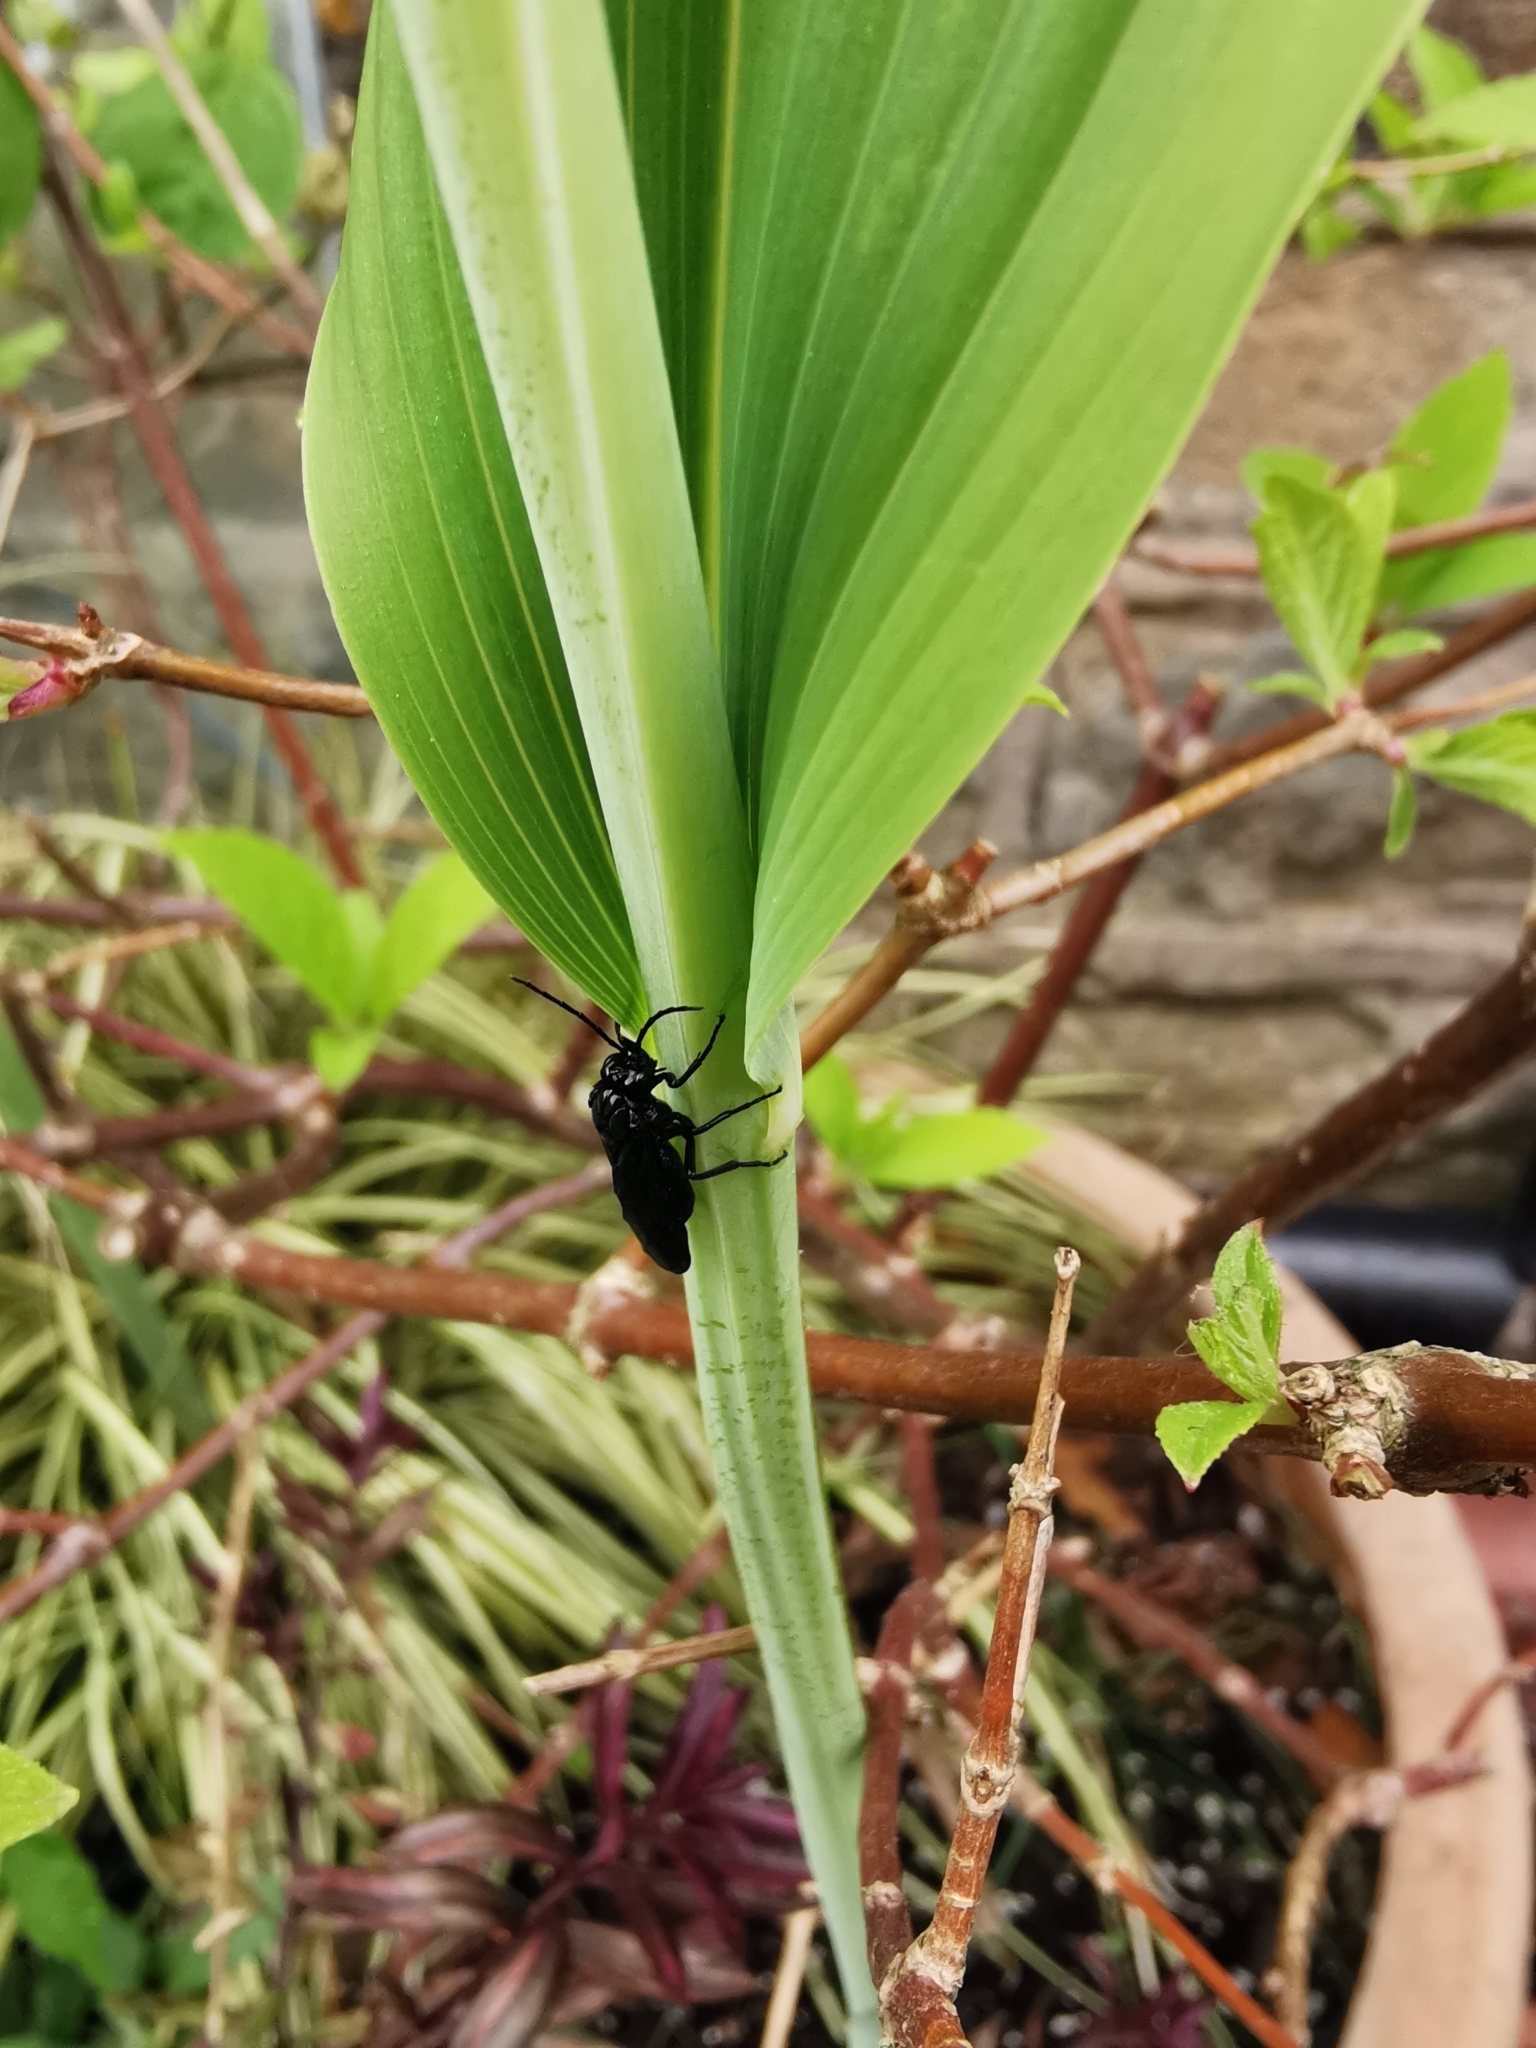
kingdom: Animalia
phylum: Arthropoda
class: Insecta
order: Hymenoptera
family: Tenthredinidae
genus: Phymatocera
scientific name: Phymatocera aterrima
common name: Solomon's-seal sawfly
